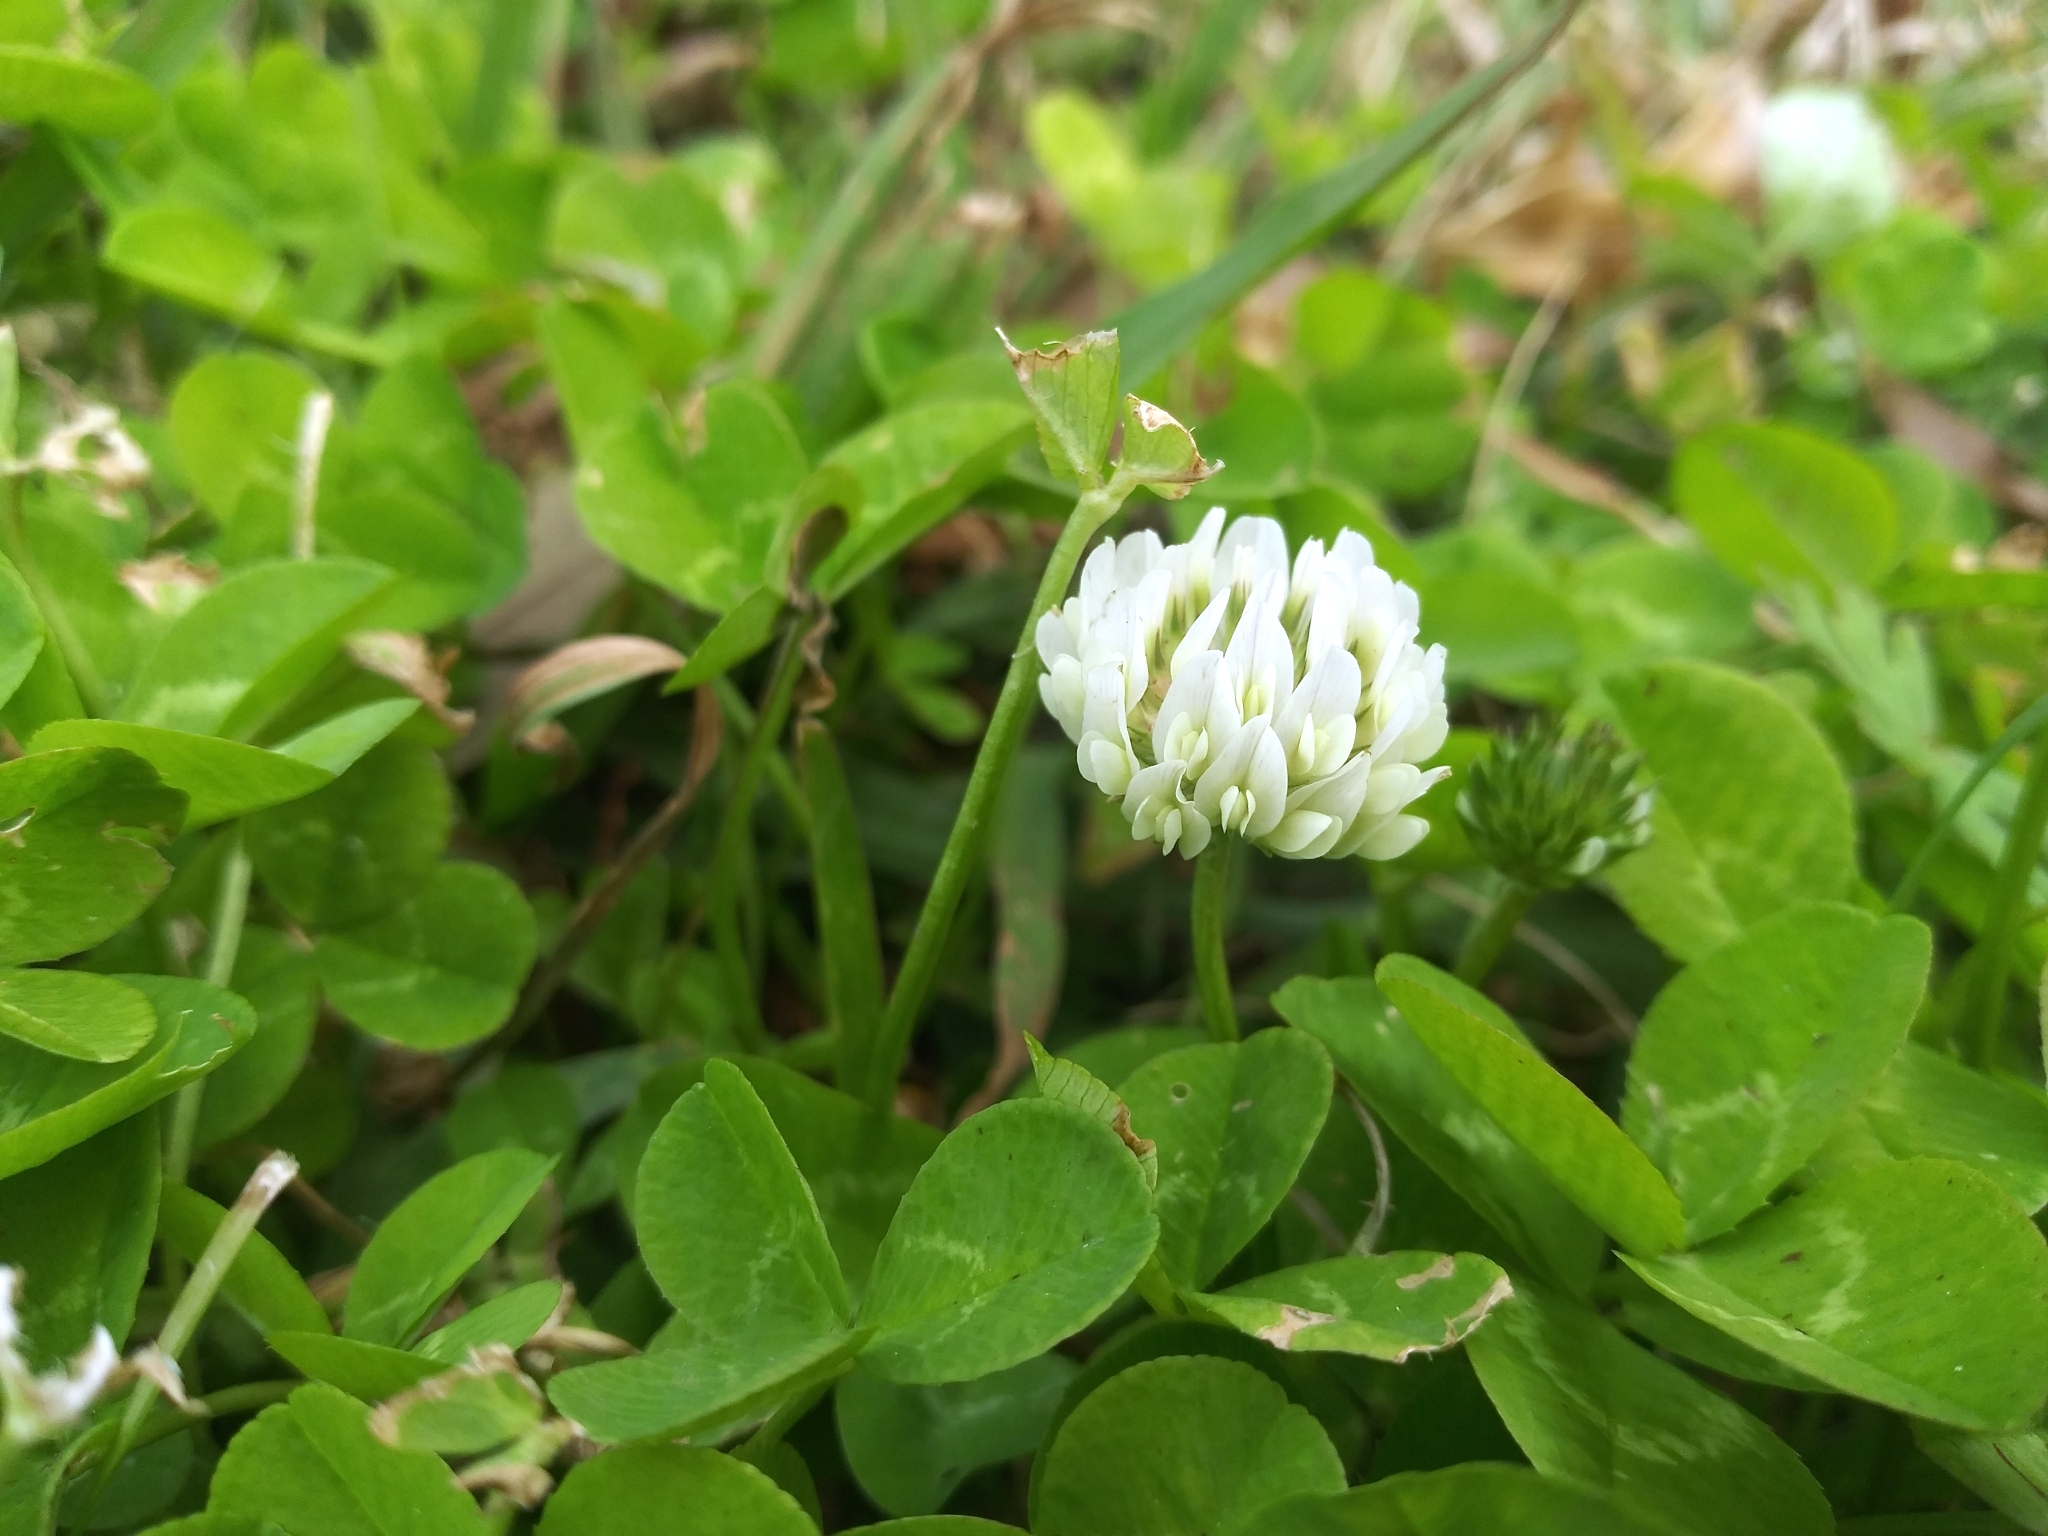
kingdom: Plantae
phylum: Tracheophyta
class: Magnoliopsida
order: Fabales
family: Fabaceae
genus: Trifolium
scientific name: Trifolium repens
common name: White clover
